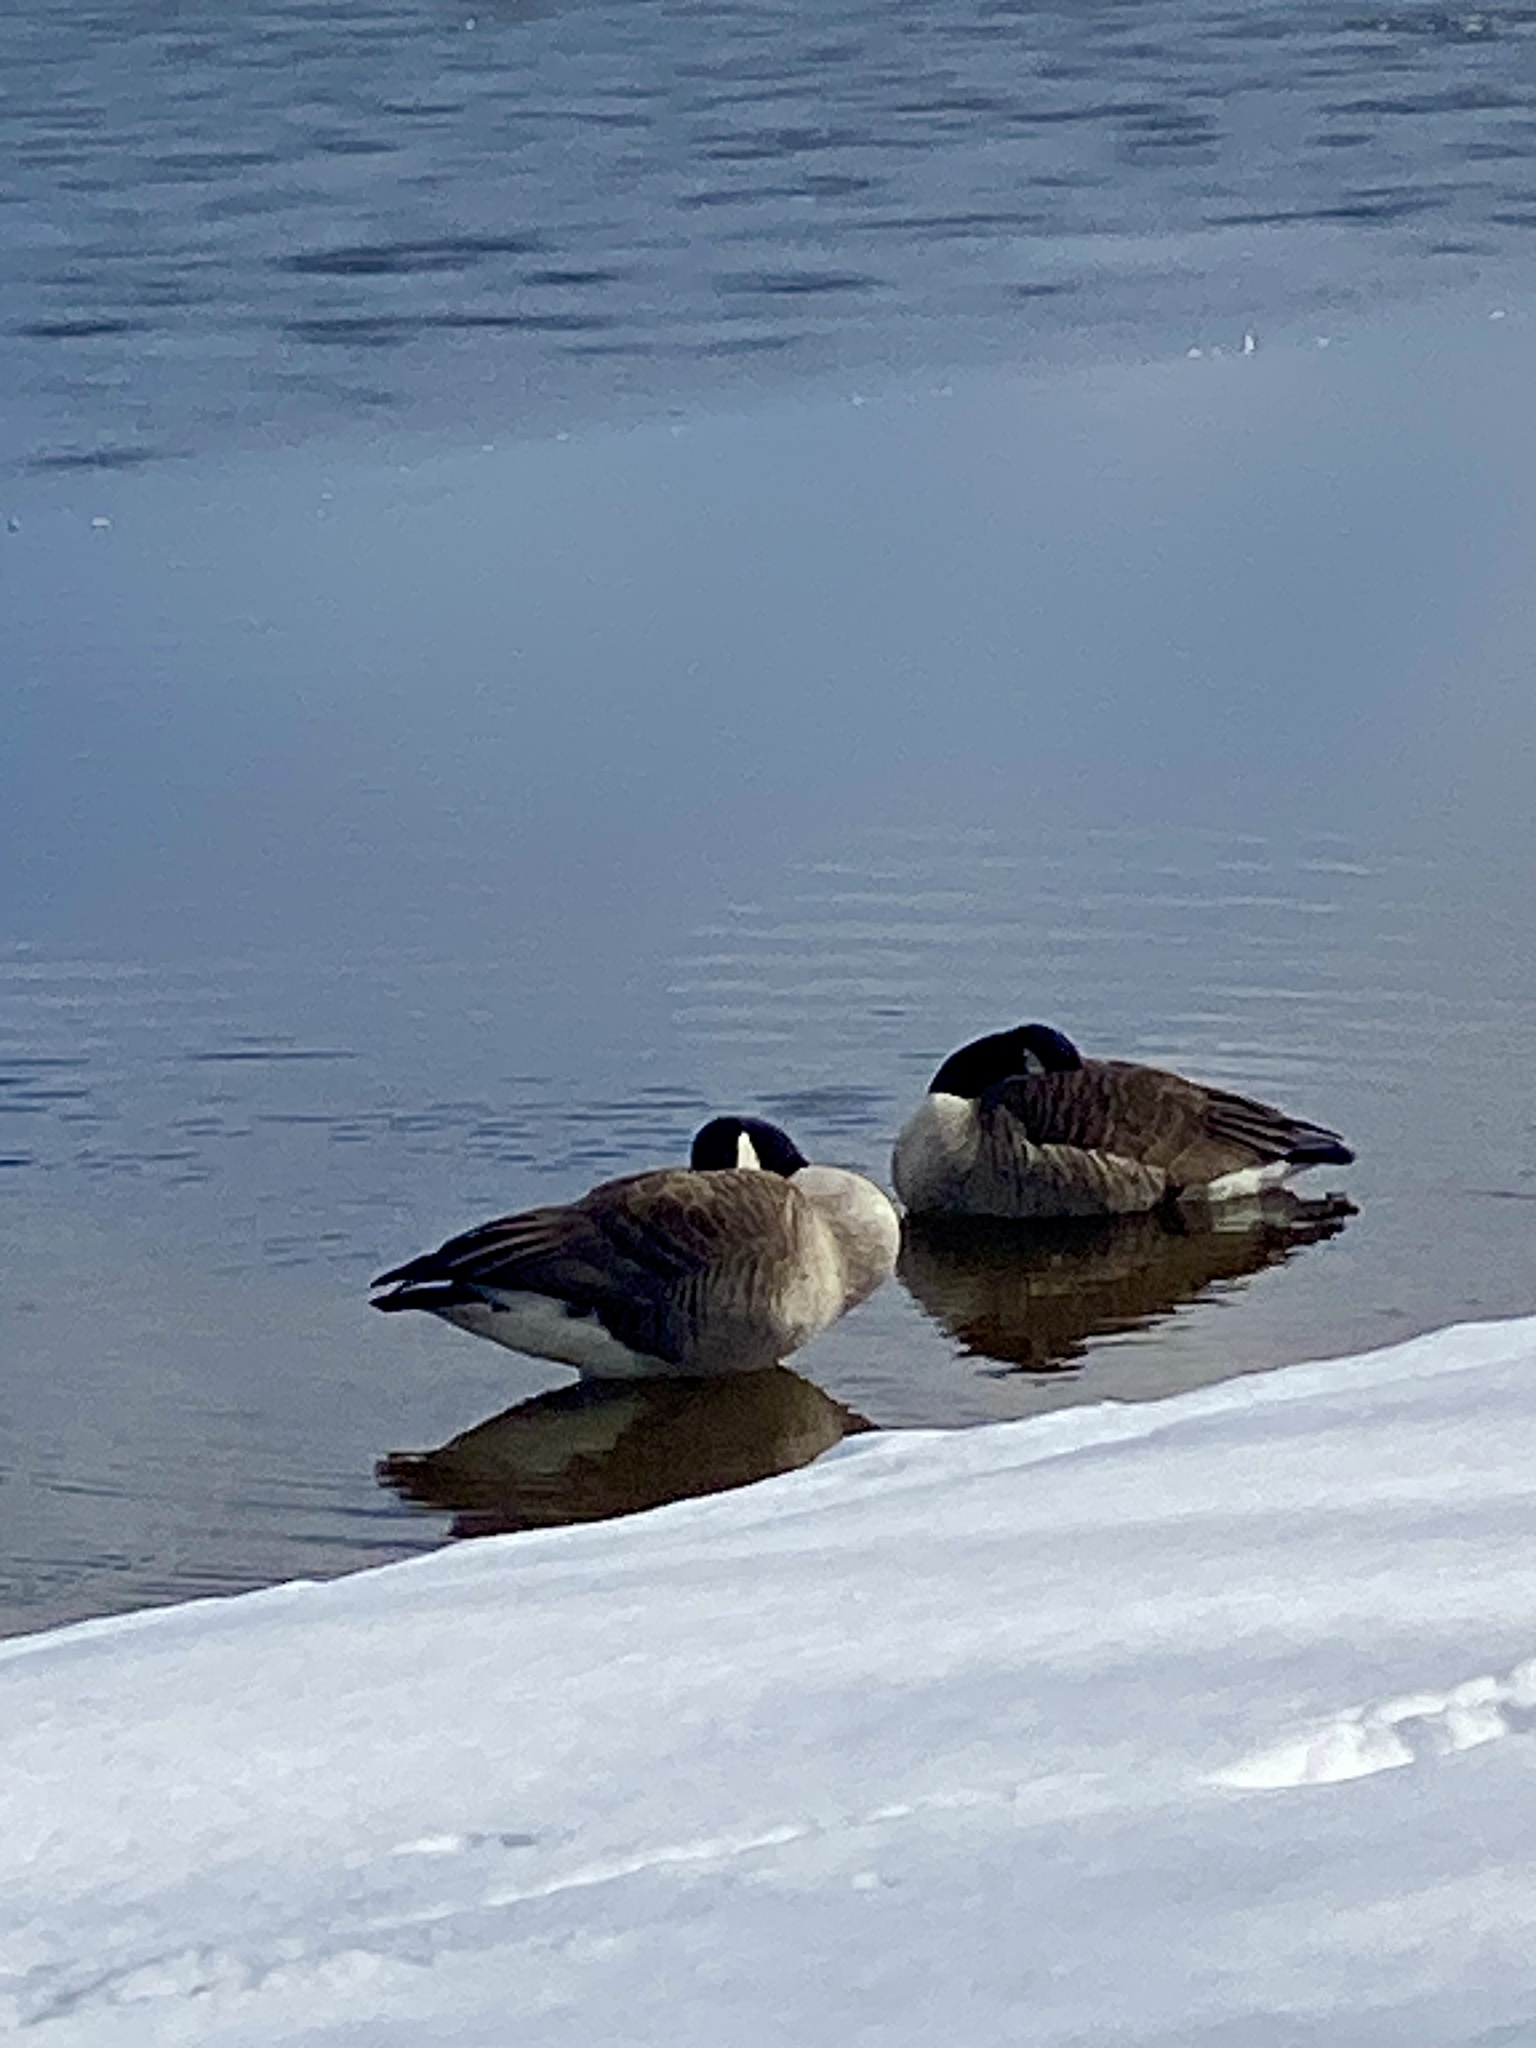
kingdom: Animalia
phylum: Chordata
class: Aves
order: Anseriformes
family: Anatidae
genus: Branta
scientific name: Branta canadensis
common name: Canada goose
